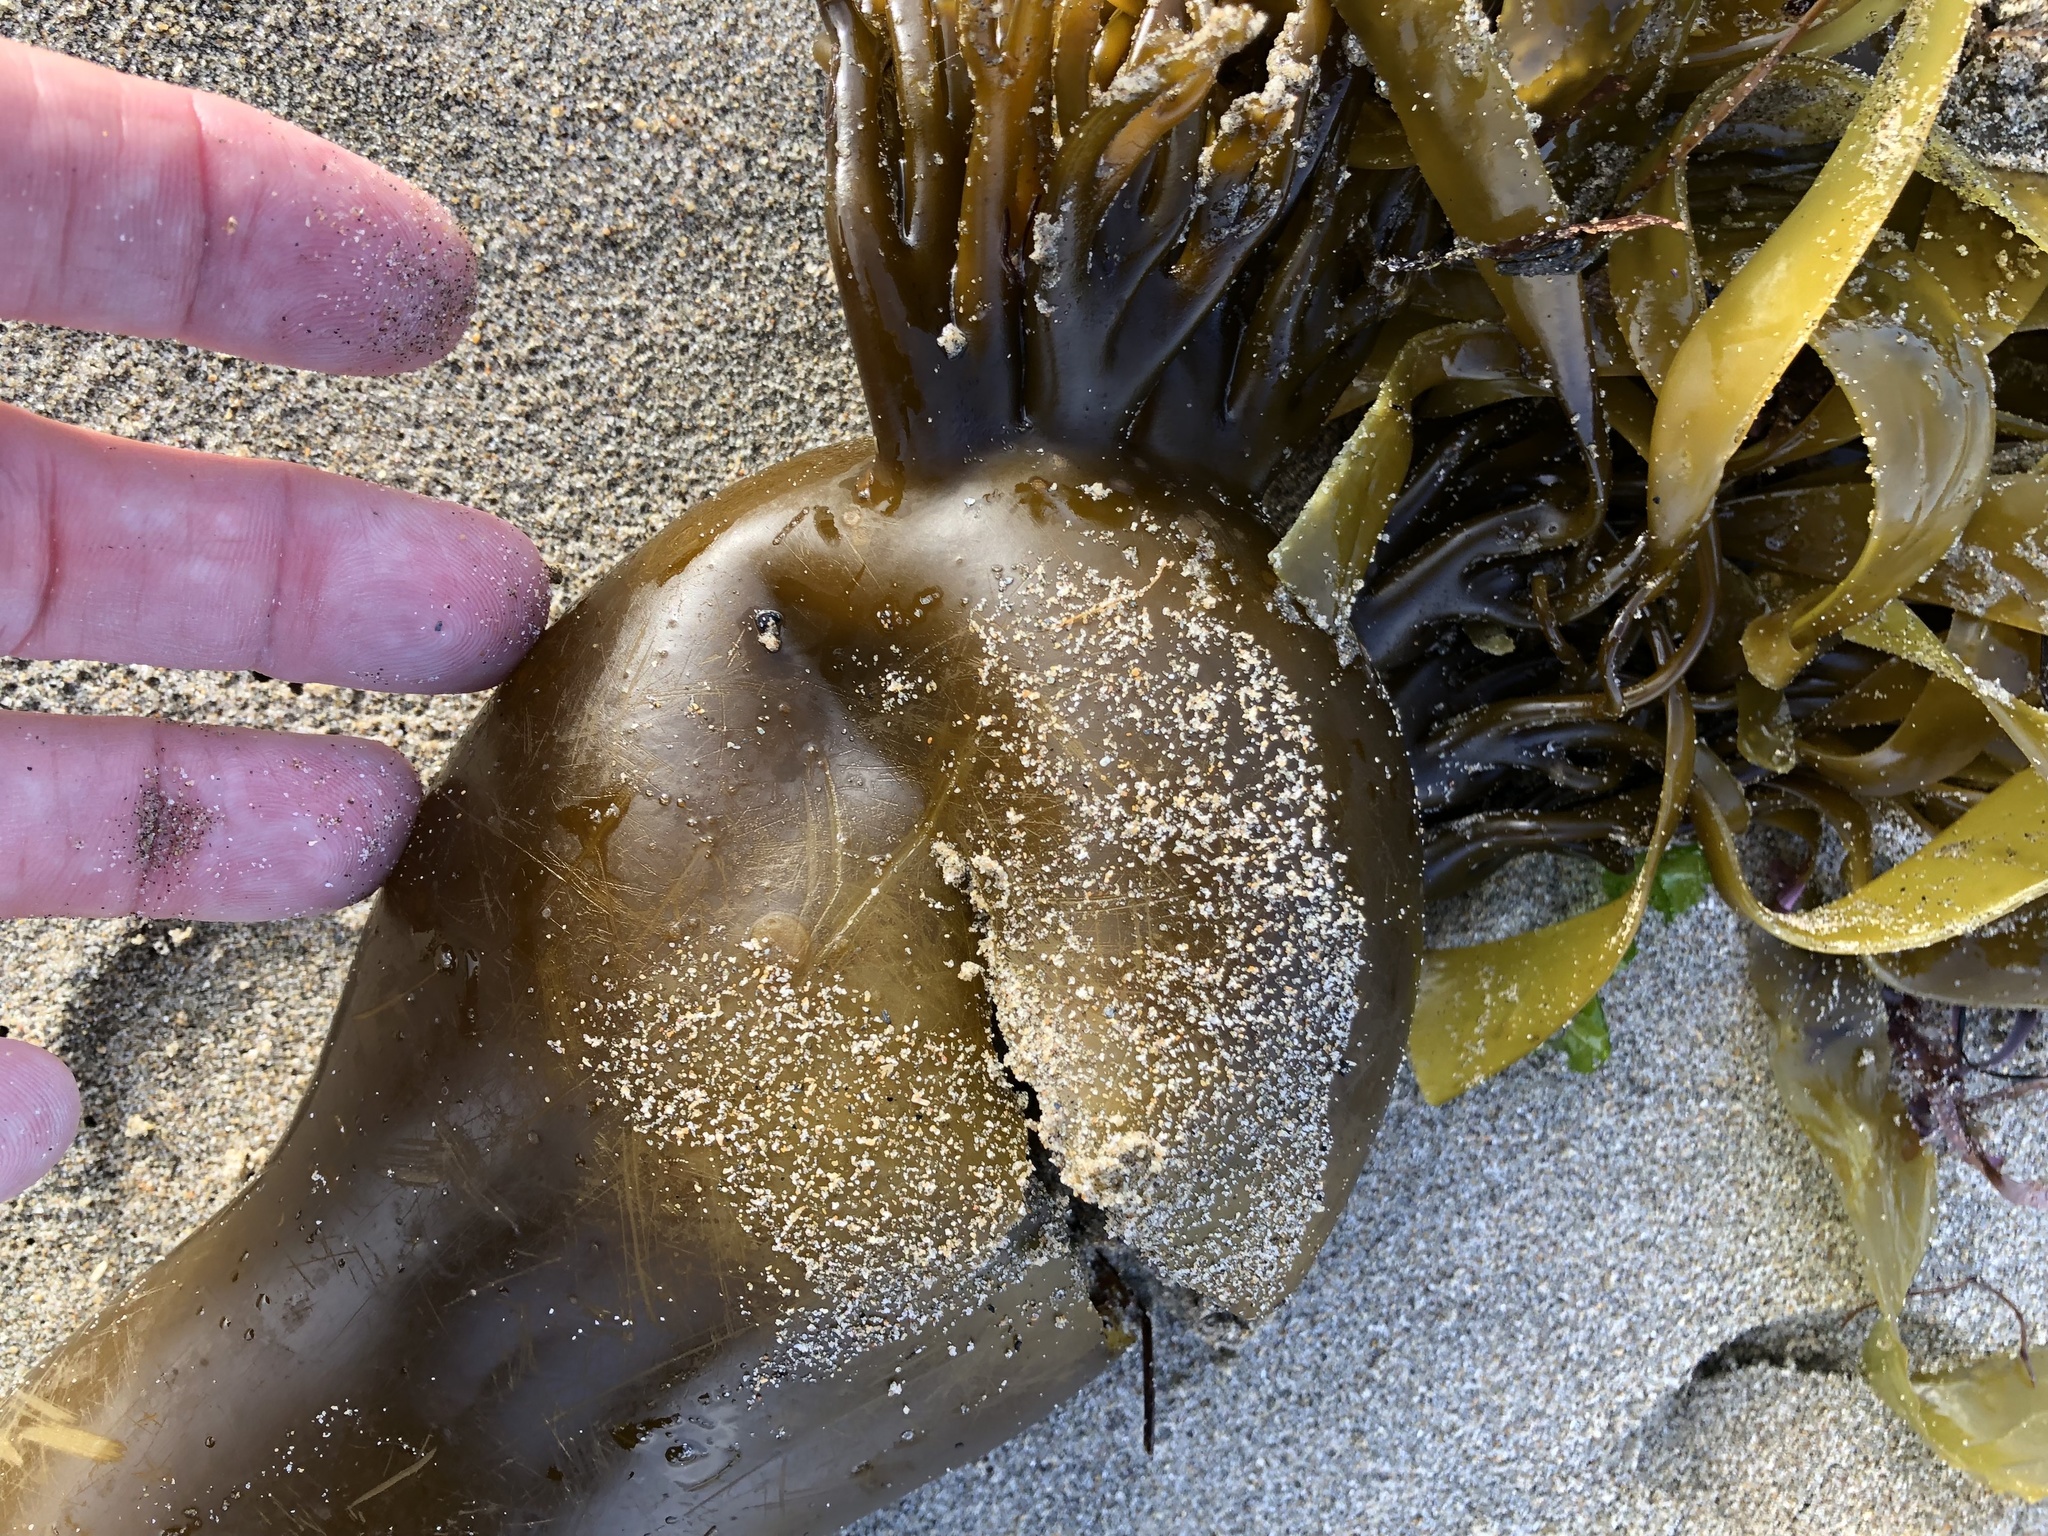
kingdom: Chromista
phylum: Ochrophyta
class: Phaeophyceae
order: Laminariales
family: Laminariaceae
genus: Nereocystis
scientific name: Nereocystis luetkeana
